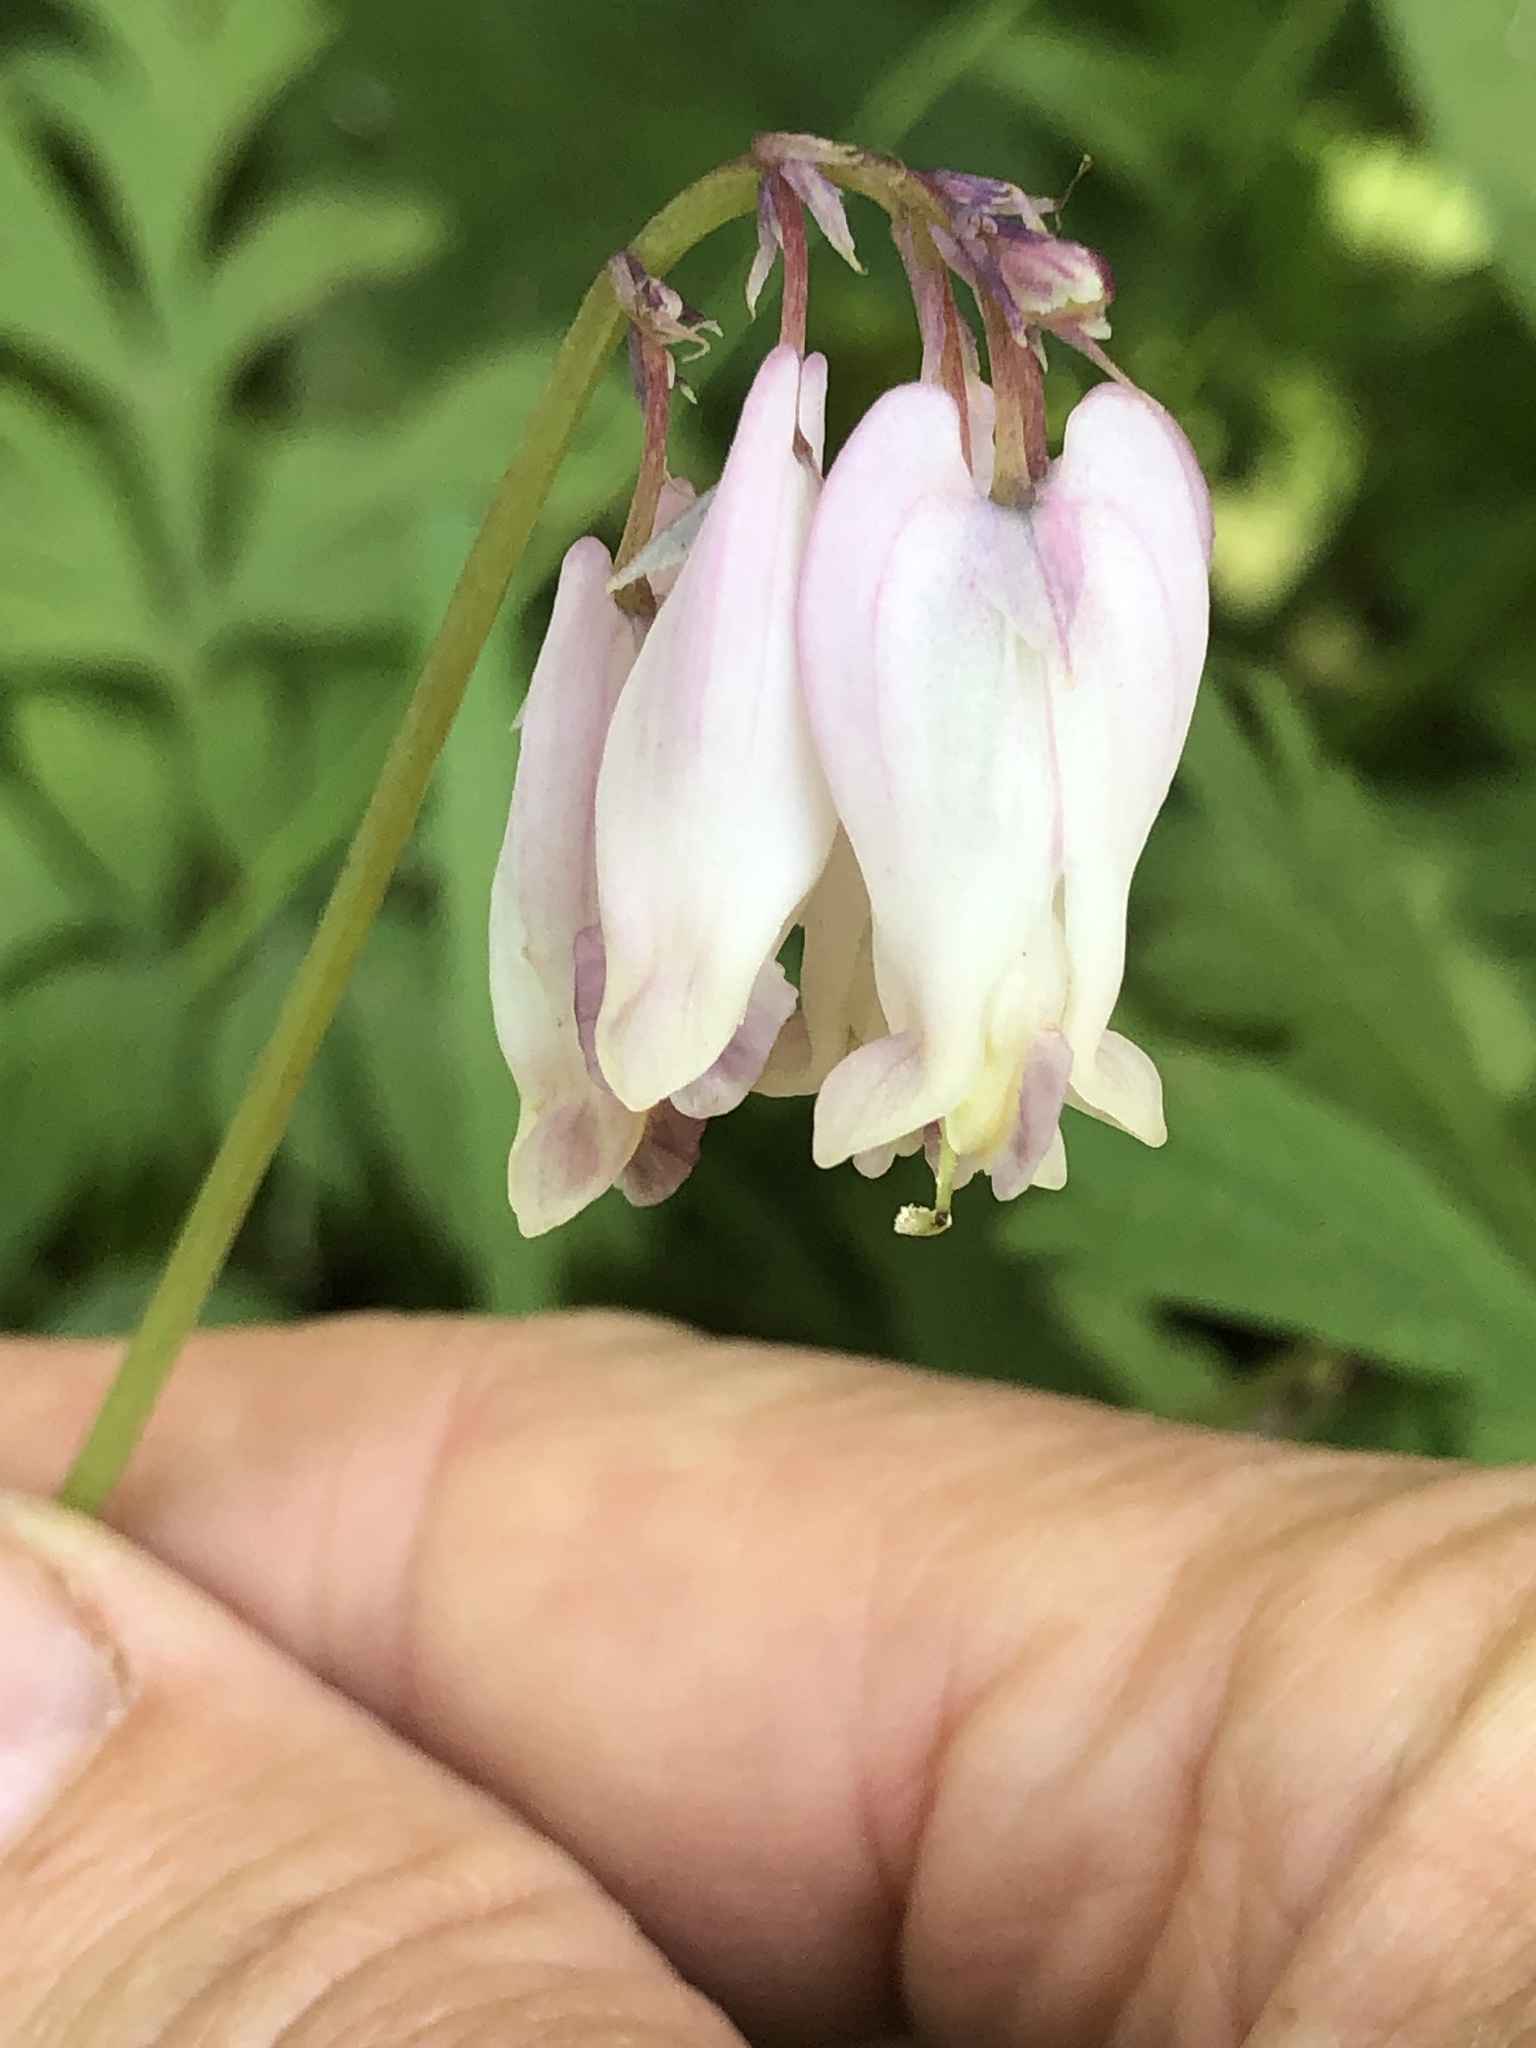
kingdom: Plantae
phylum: Tracheophyta
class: Magnoliopsida
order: Ranunculales
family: Papaveraceae
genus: Dicentra
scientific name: Dicentra formosa
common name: Bleeding-heart
